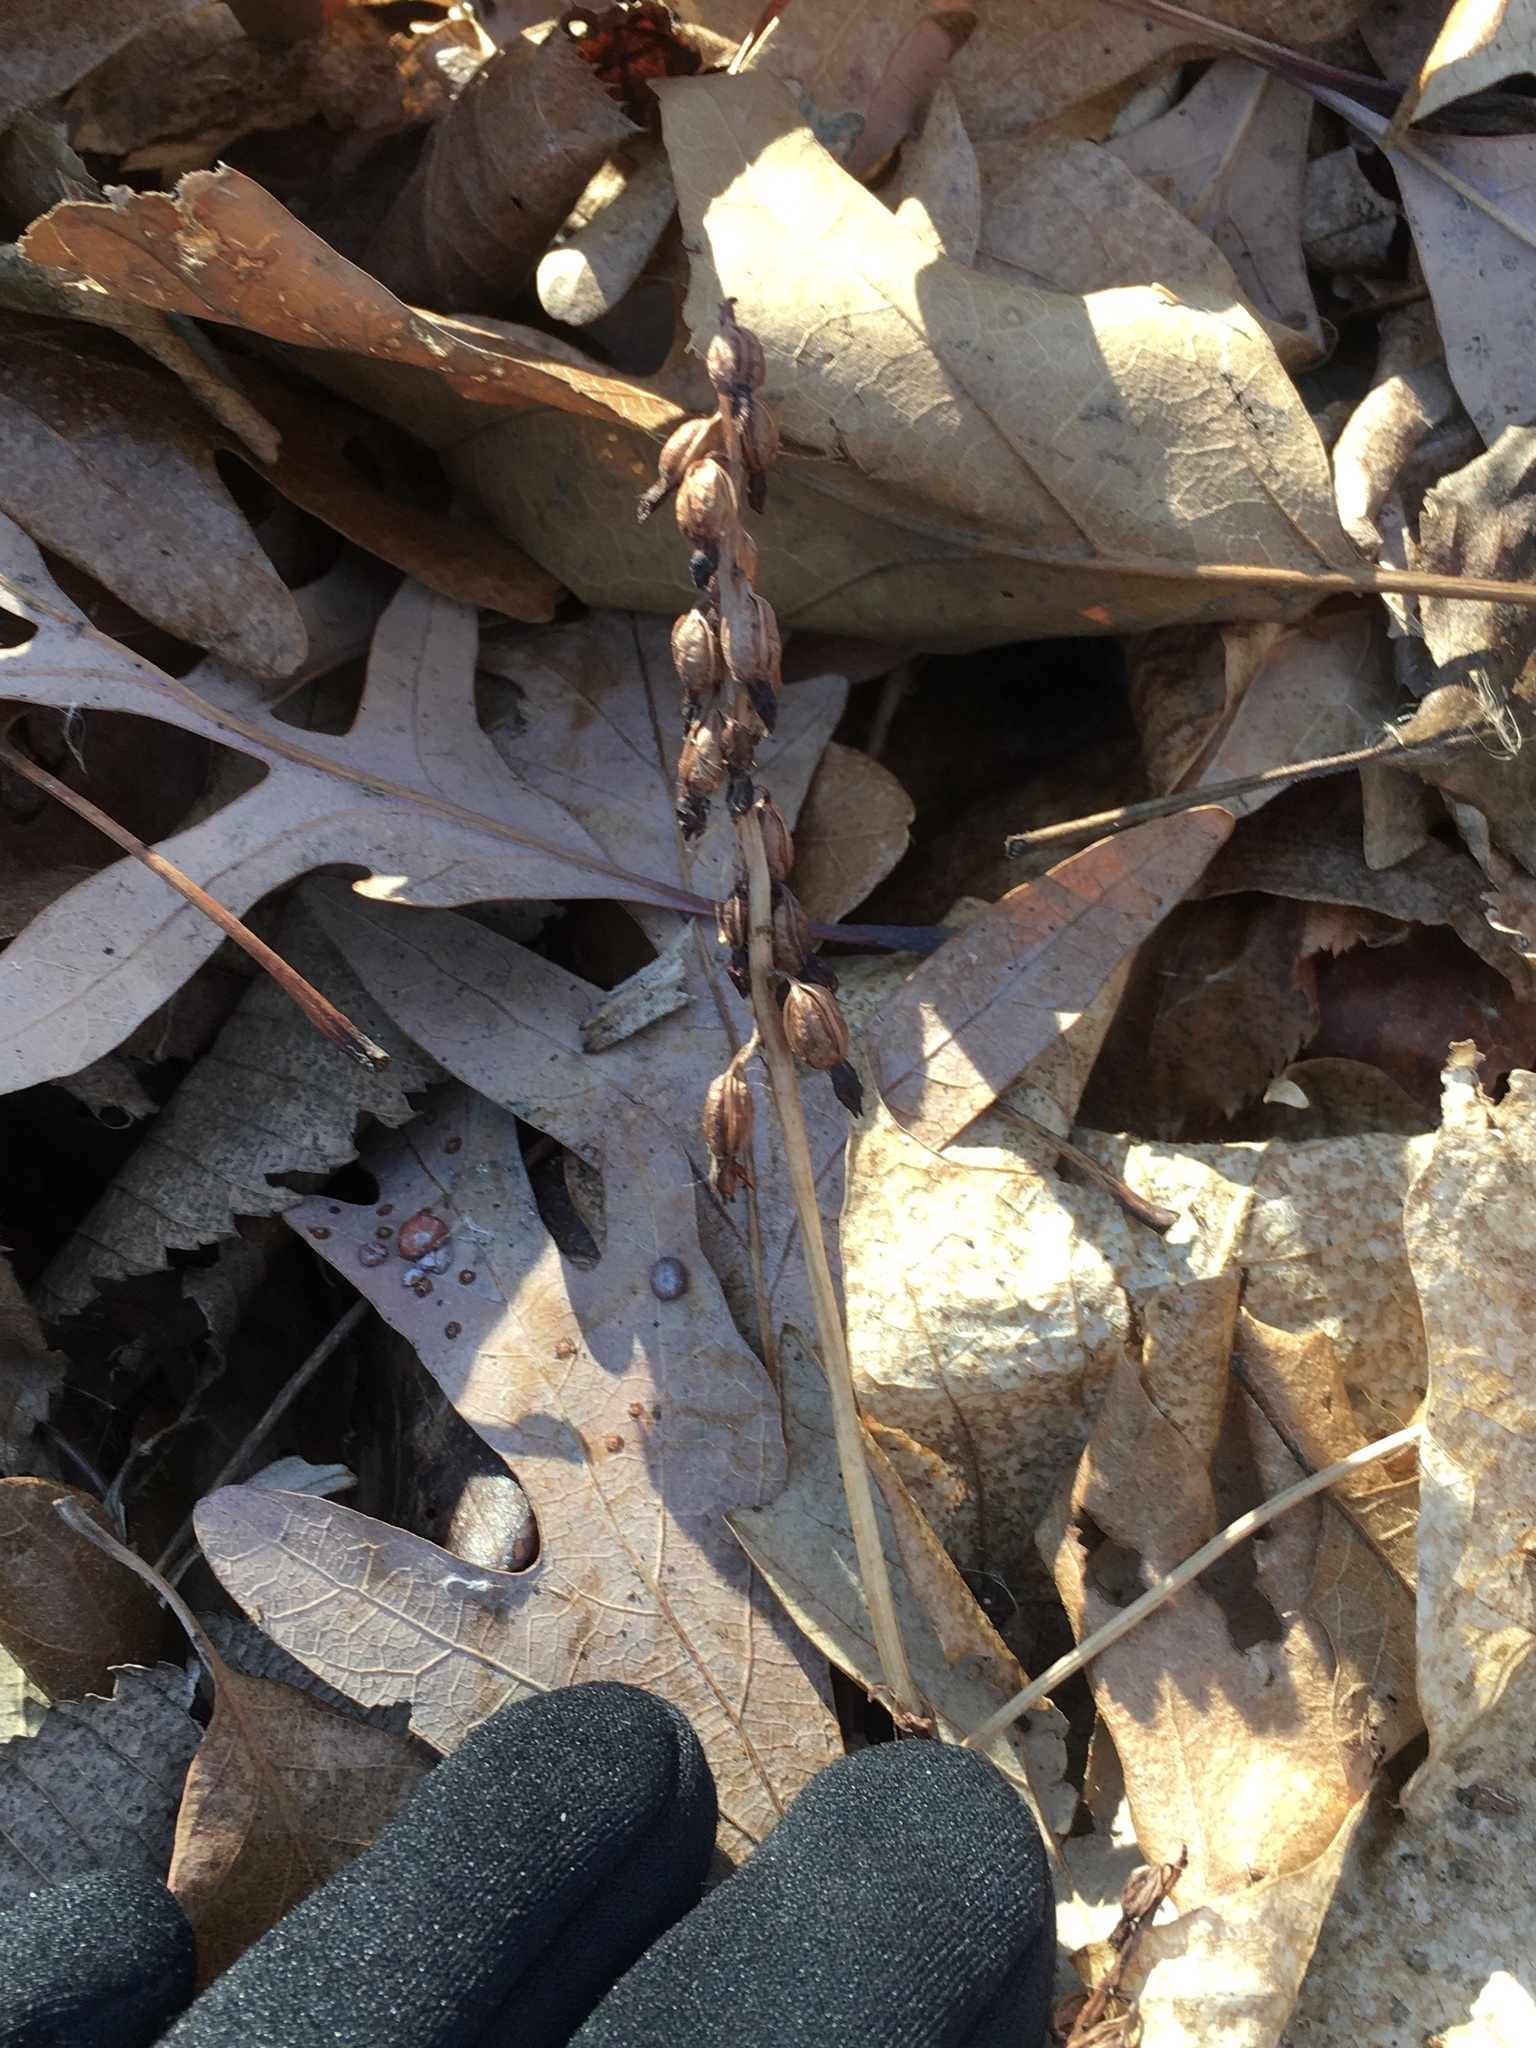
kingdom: Plantae
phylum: Tracheophyta
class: Liliopsida
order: Asparagales
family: Orchidaceae
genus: Corallorhiza
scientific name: Corallorhiza odontorhiza
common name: Autumn coralroot
